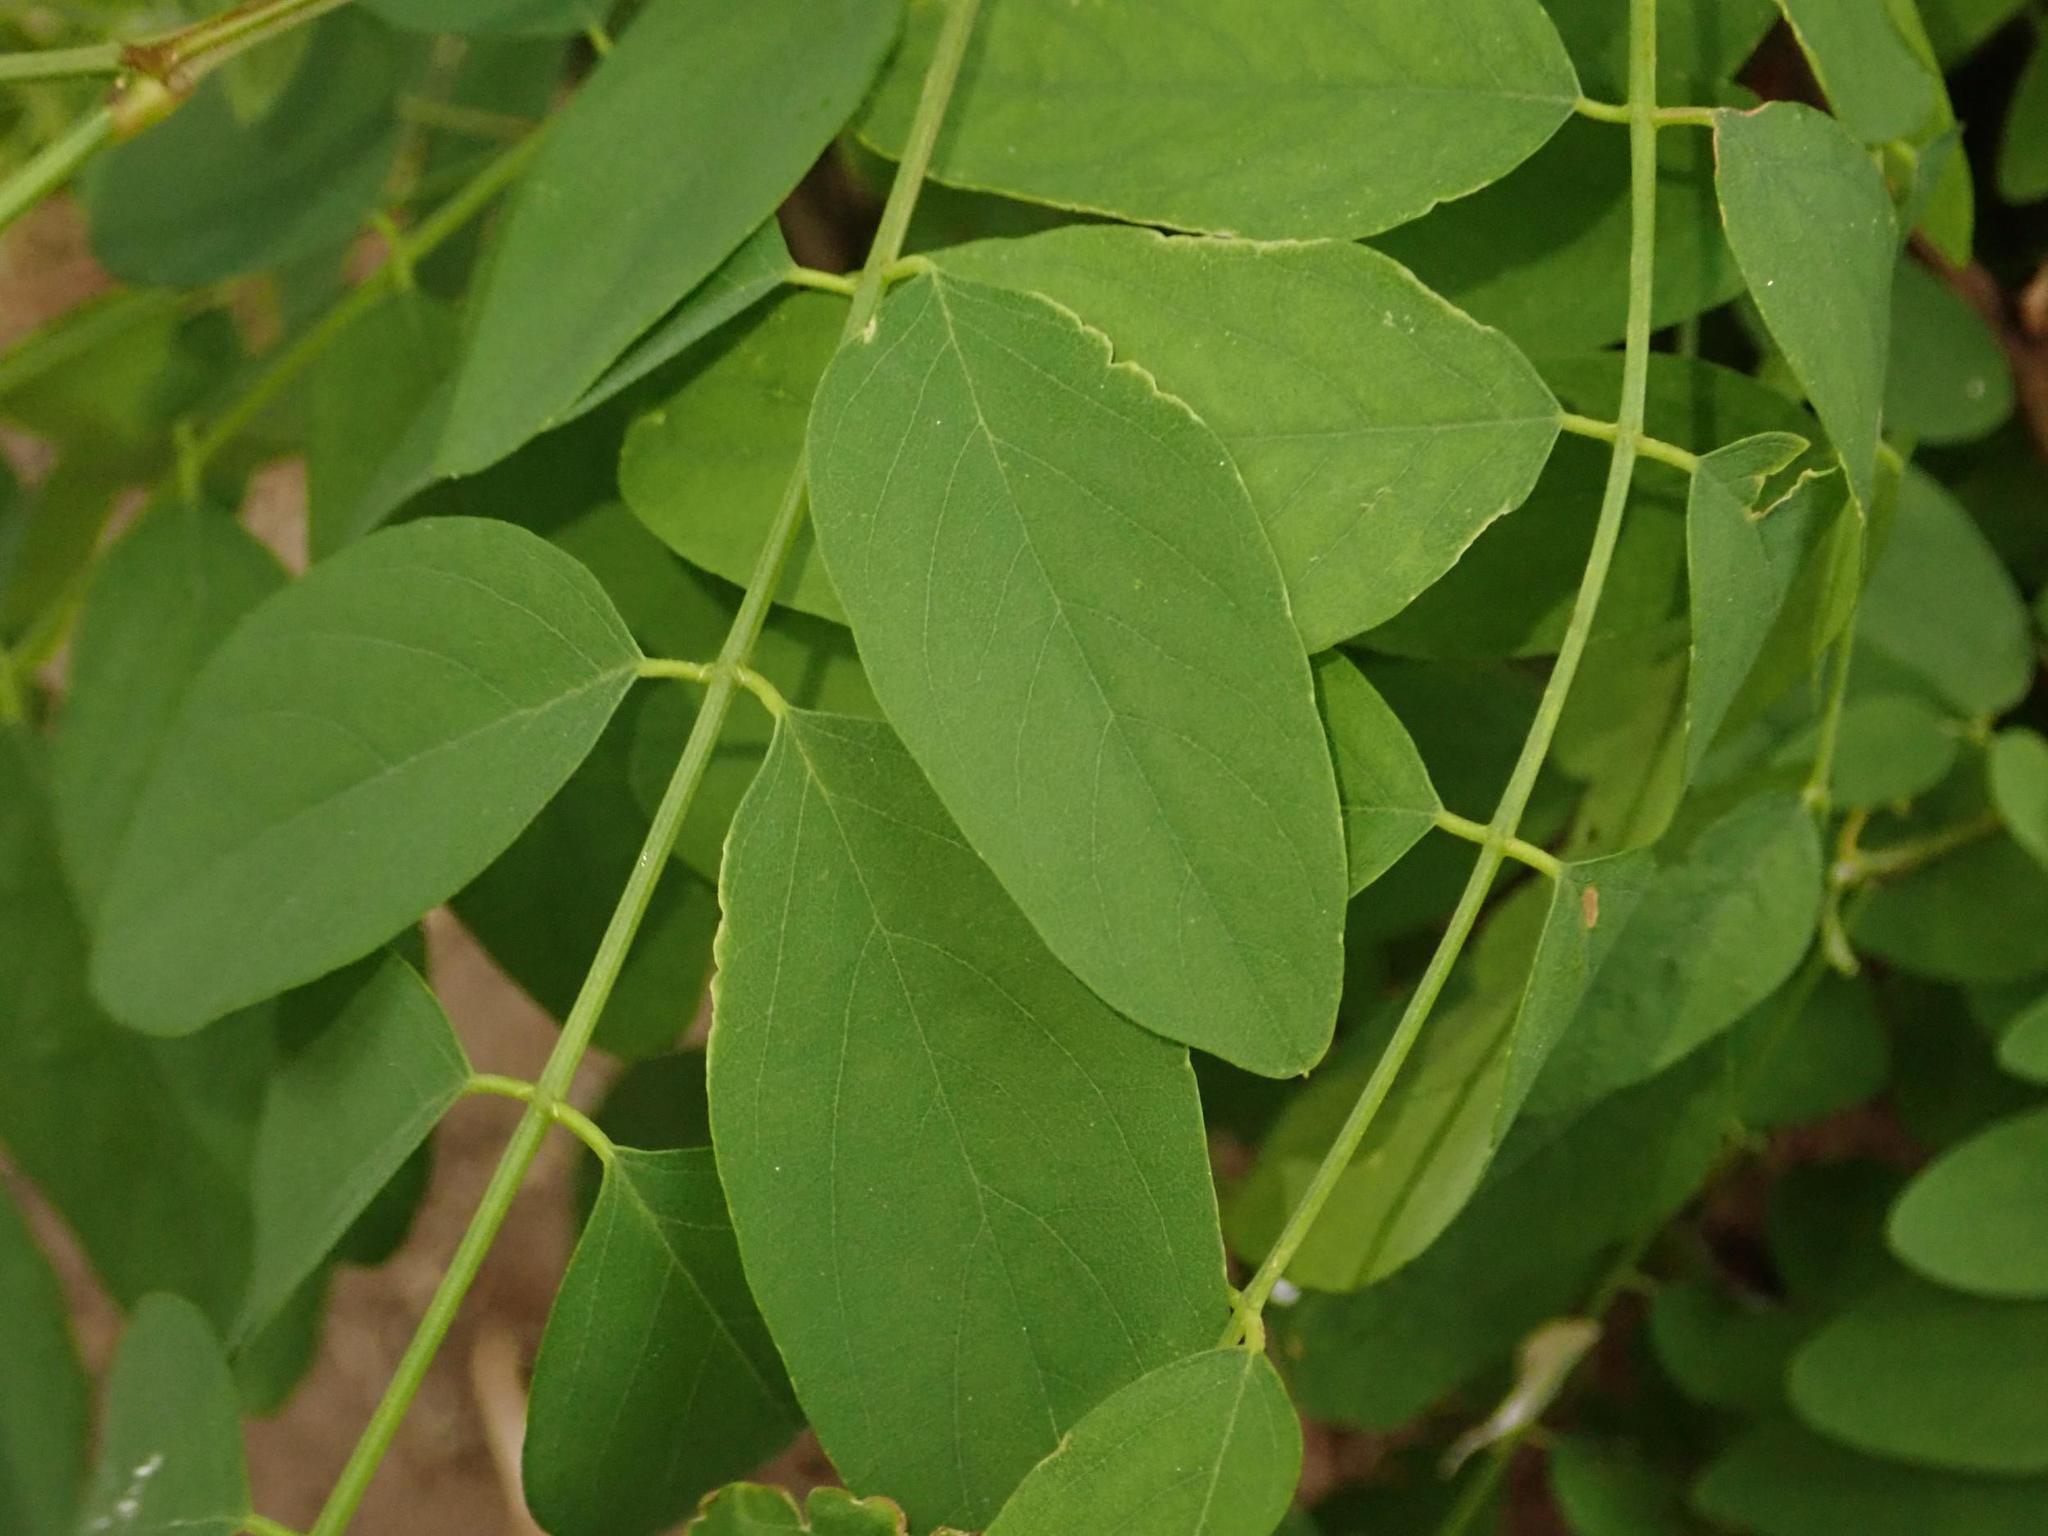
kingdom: Plantae
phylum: Tracheophyta
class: Magnoliopsida
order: Fabales
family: Fabaceae
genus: Robinia
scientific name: Robinia pseudoacacia
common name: Black locust
